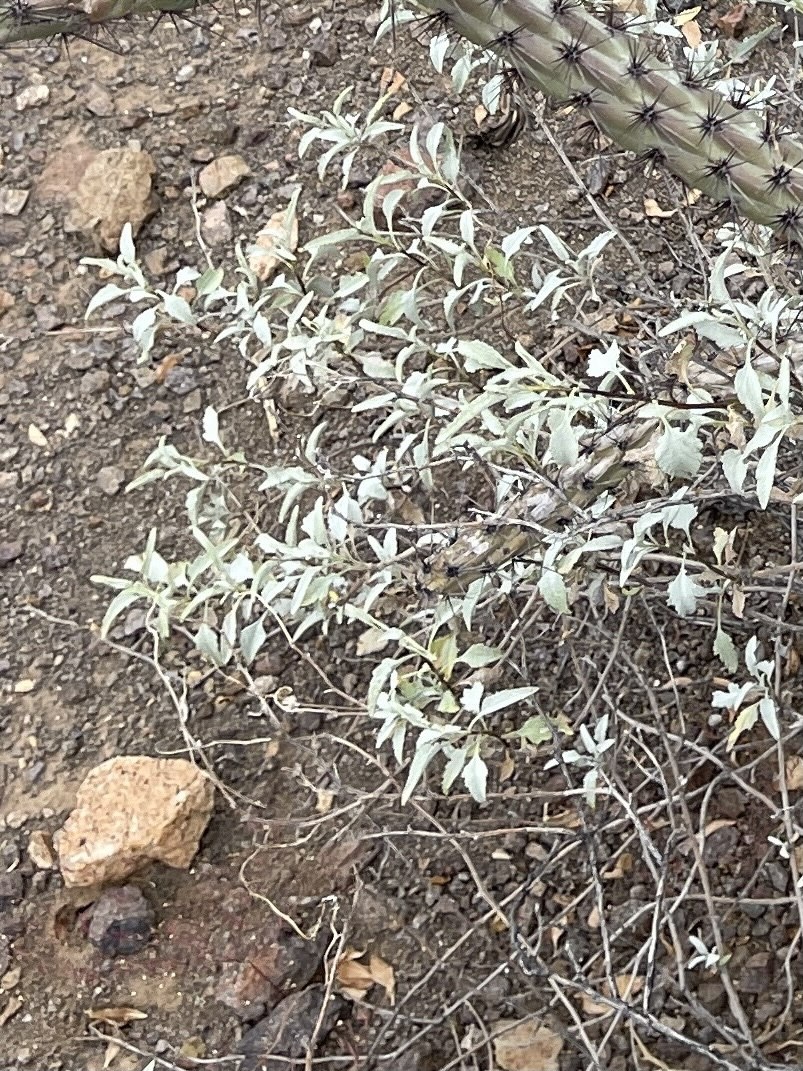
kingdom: Plantae
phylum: Tracheophyta
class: Magnoliopsida
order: Asterales
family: Asteraceae
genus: Ambrosia
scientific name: Ambrosia deltoidea
